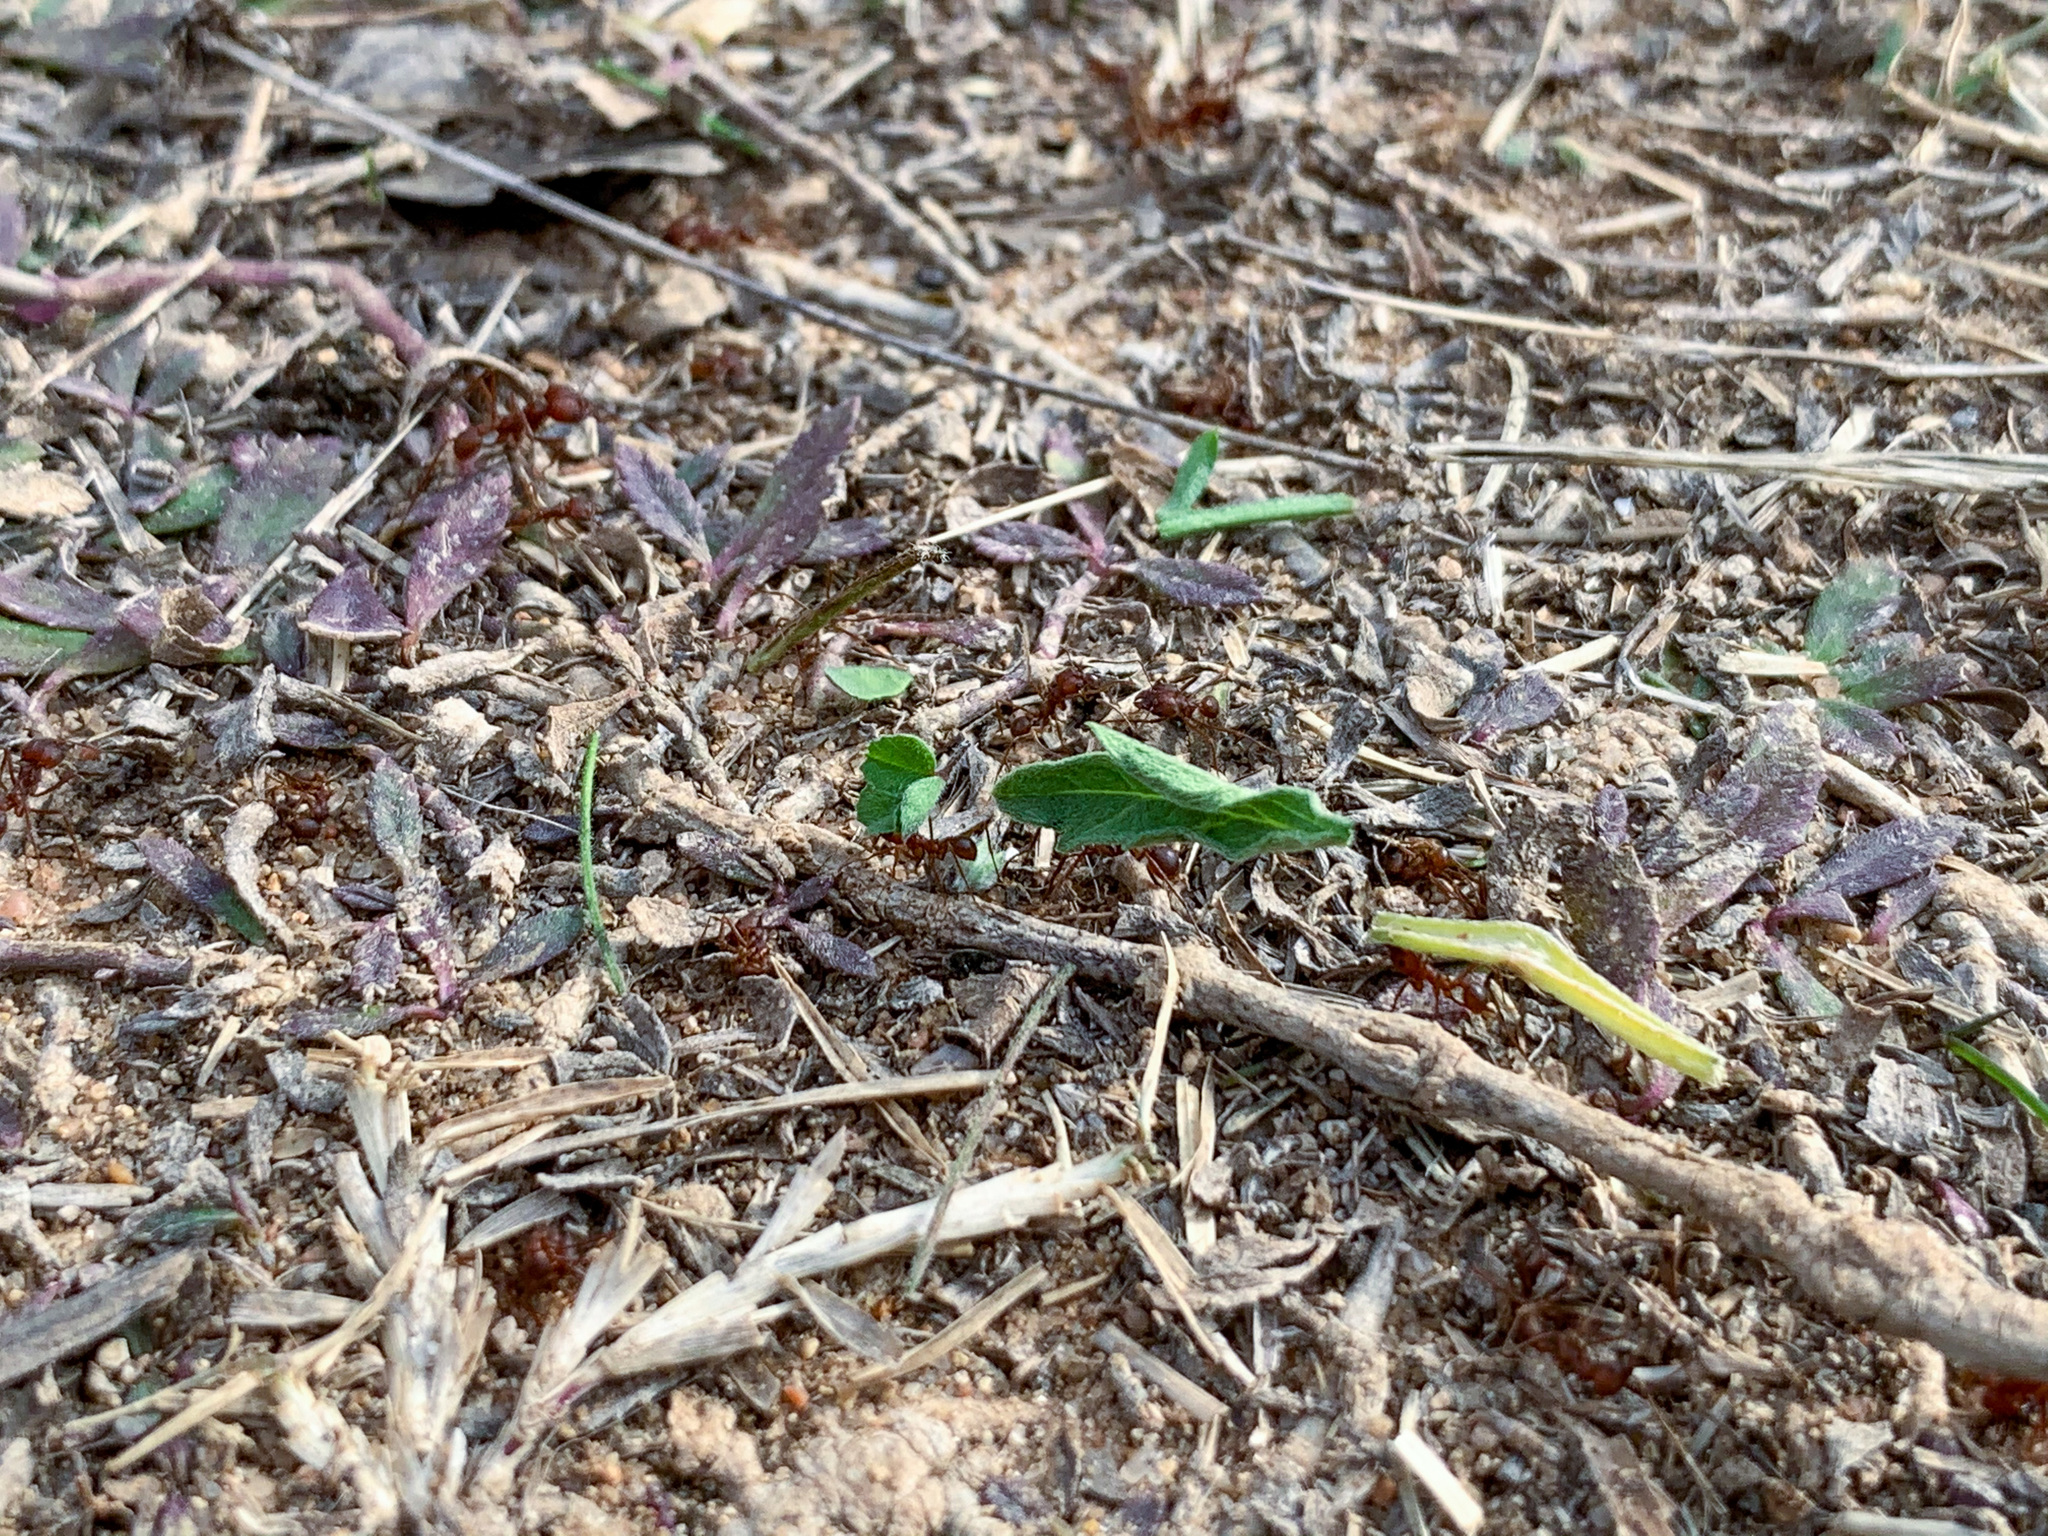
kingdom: Animalia
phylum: Arthropoda
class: Insecta
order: Hymenoptera
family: Formicidae
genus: Atta
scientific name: Atta texana
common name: Texas leafcutting ant
